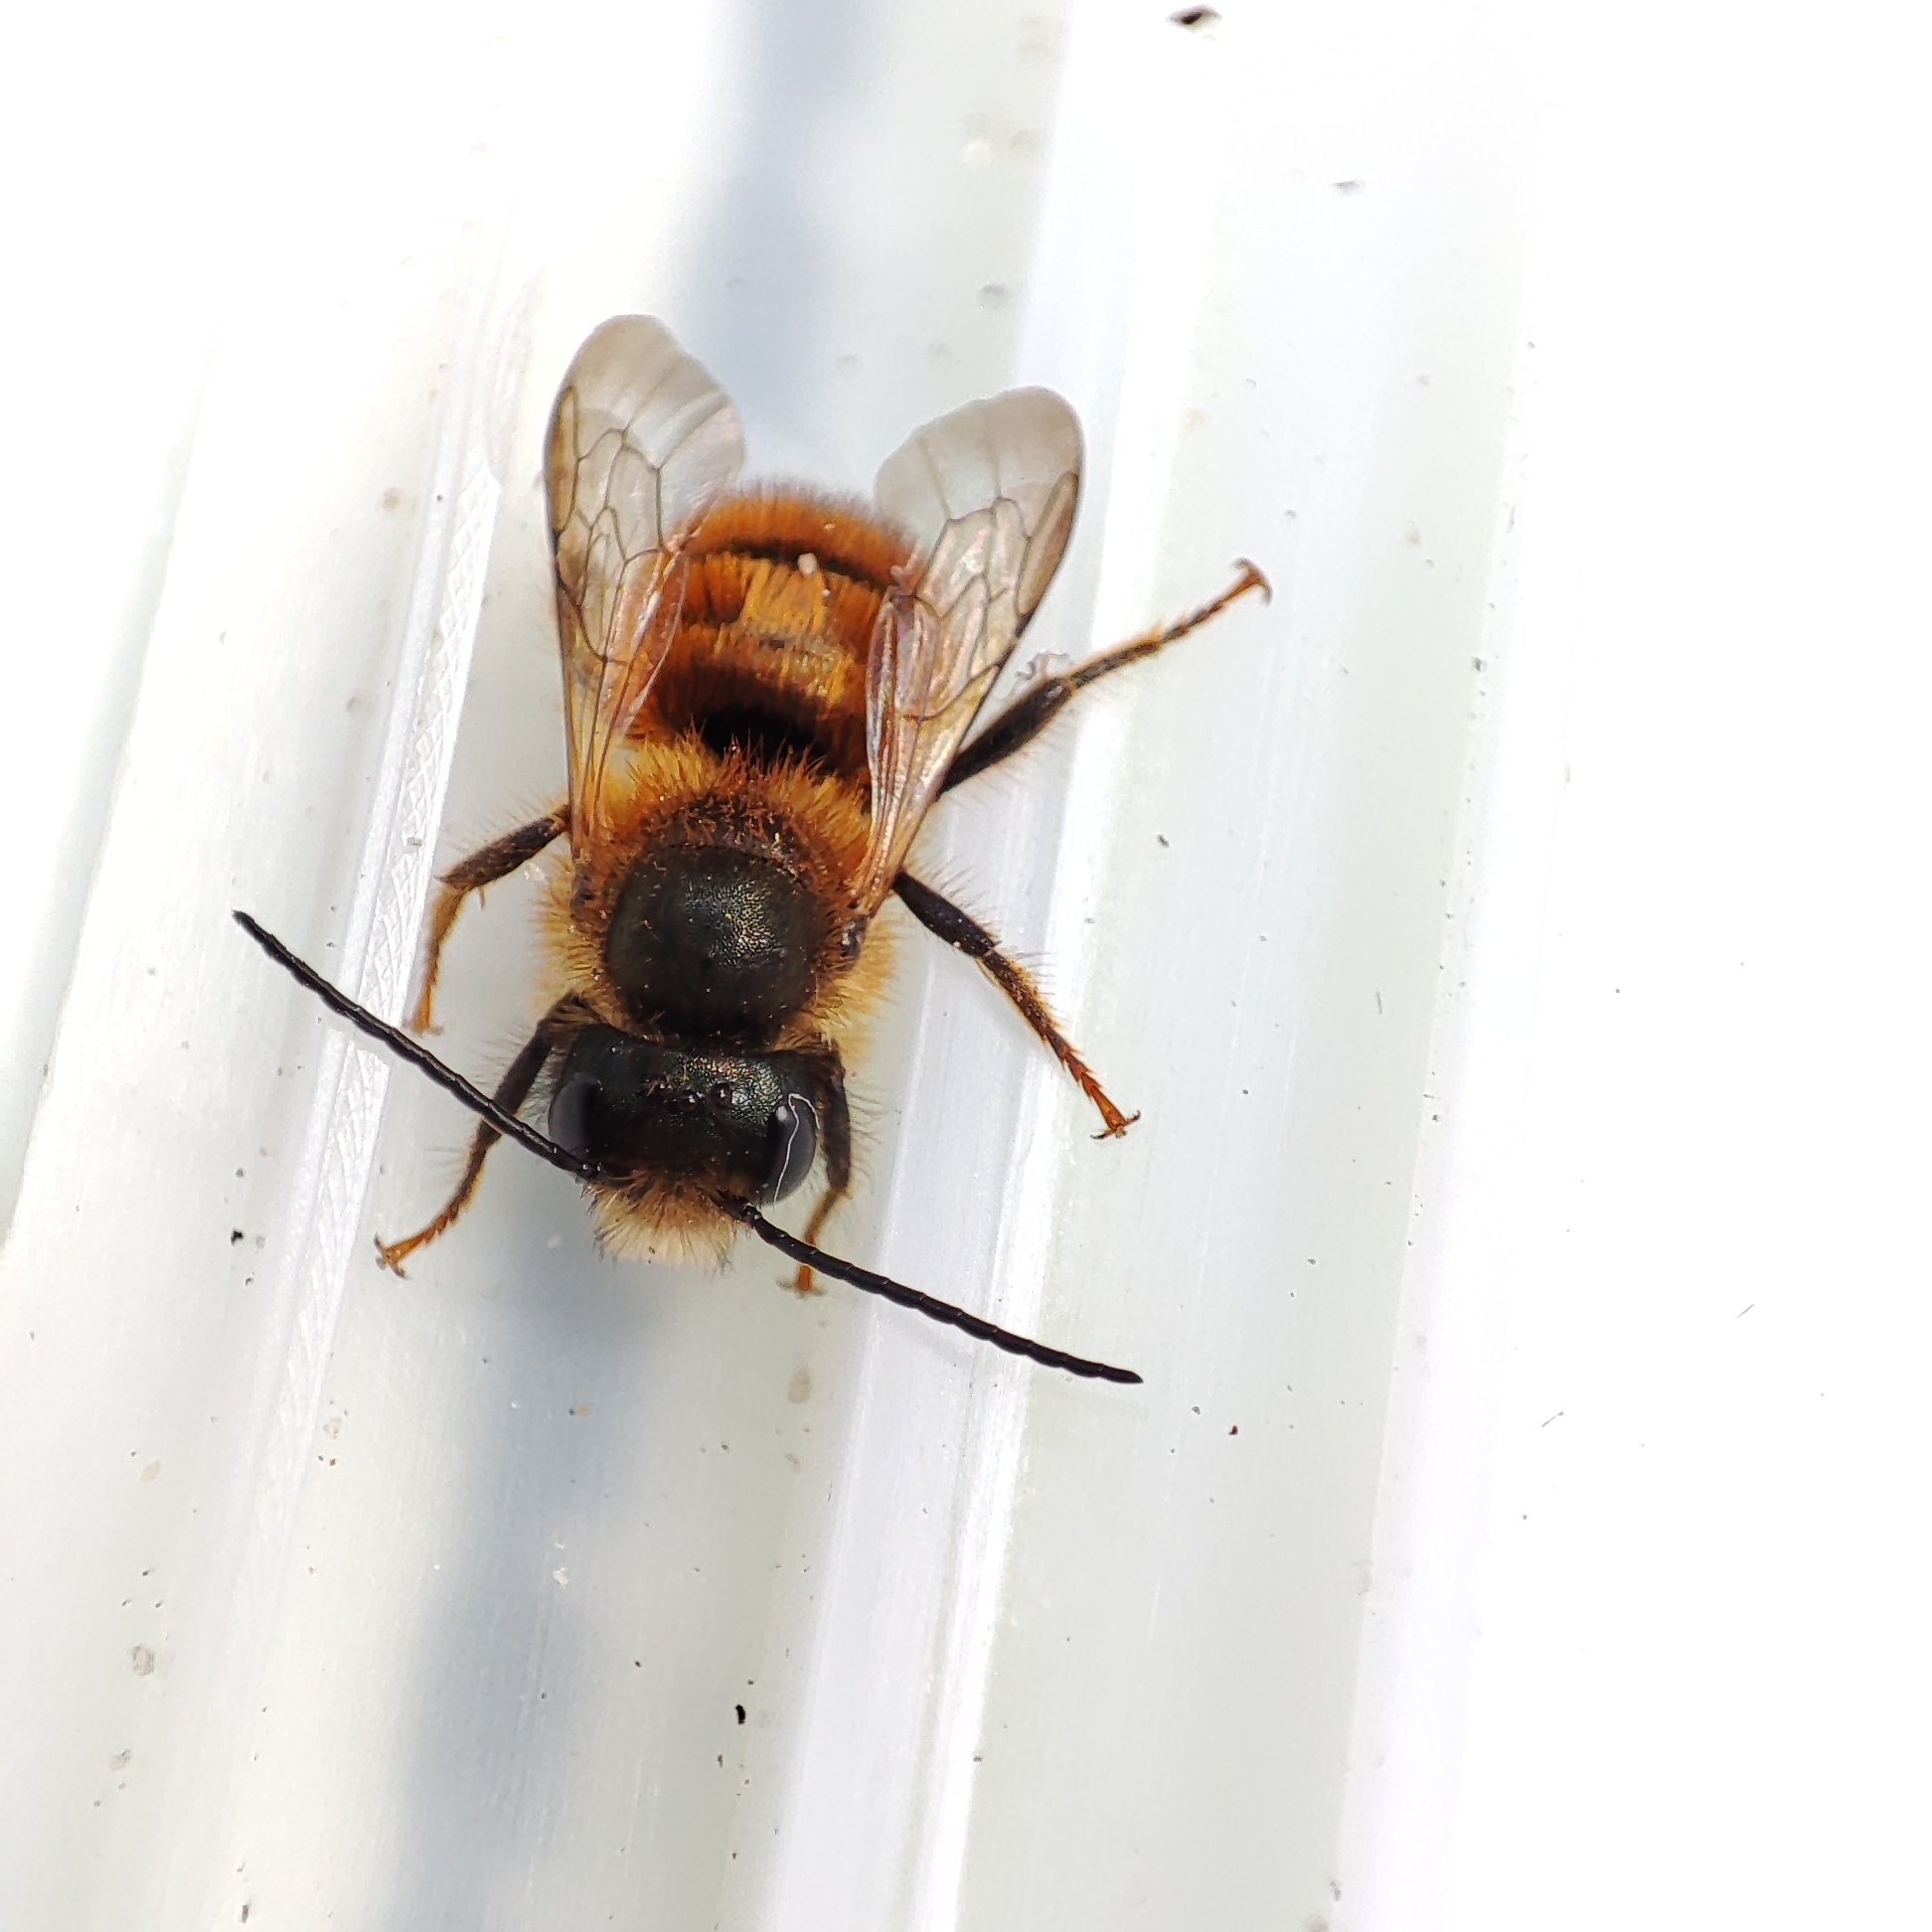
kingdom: Animalia
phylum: Arthropoda
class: Insecta
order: Hymenoptera
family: Megachilidae
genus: Osmia
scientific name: Osmia bicornis
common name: Red mason bee
